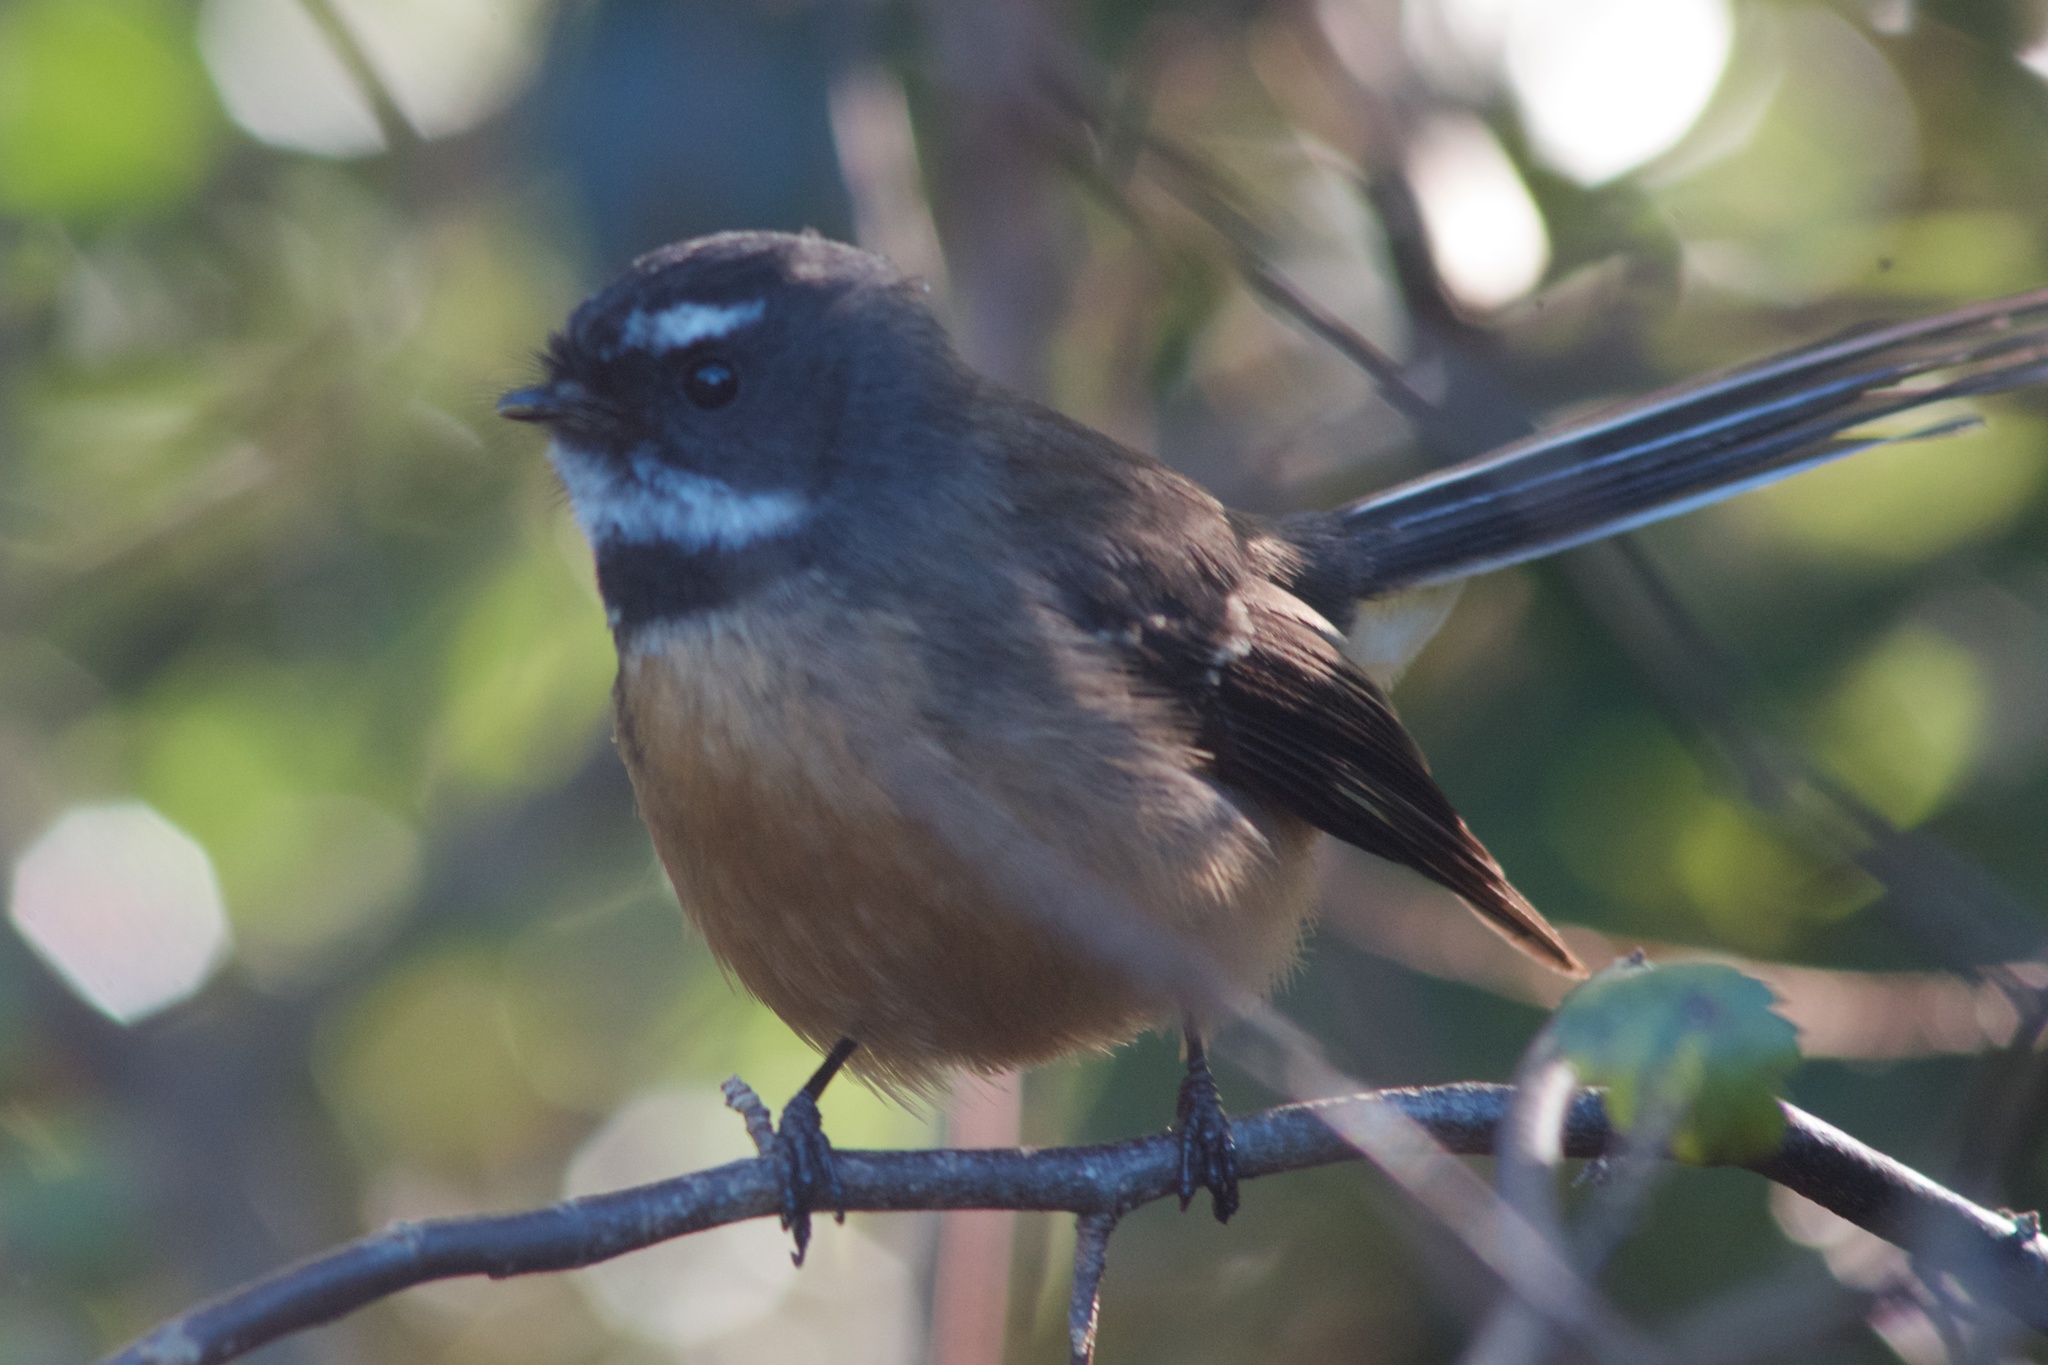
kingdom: Animalia
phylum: Chordata
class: Aves
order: Passeriformes
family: Rhipiduridae
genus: Rhipidura
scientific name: Rhipidura fuliginosa
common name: New zealand fantail
